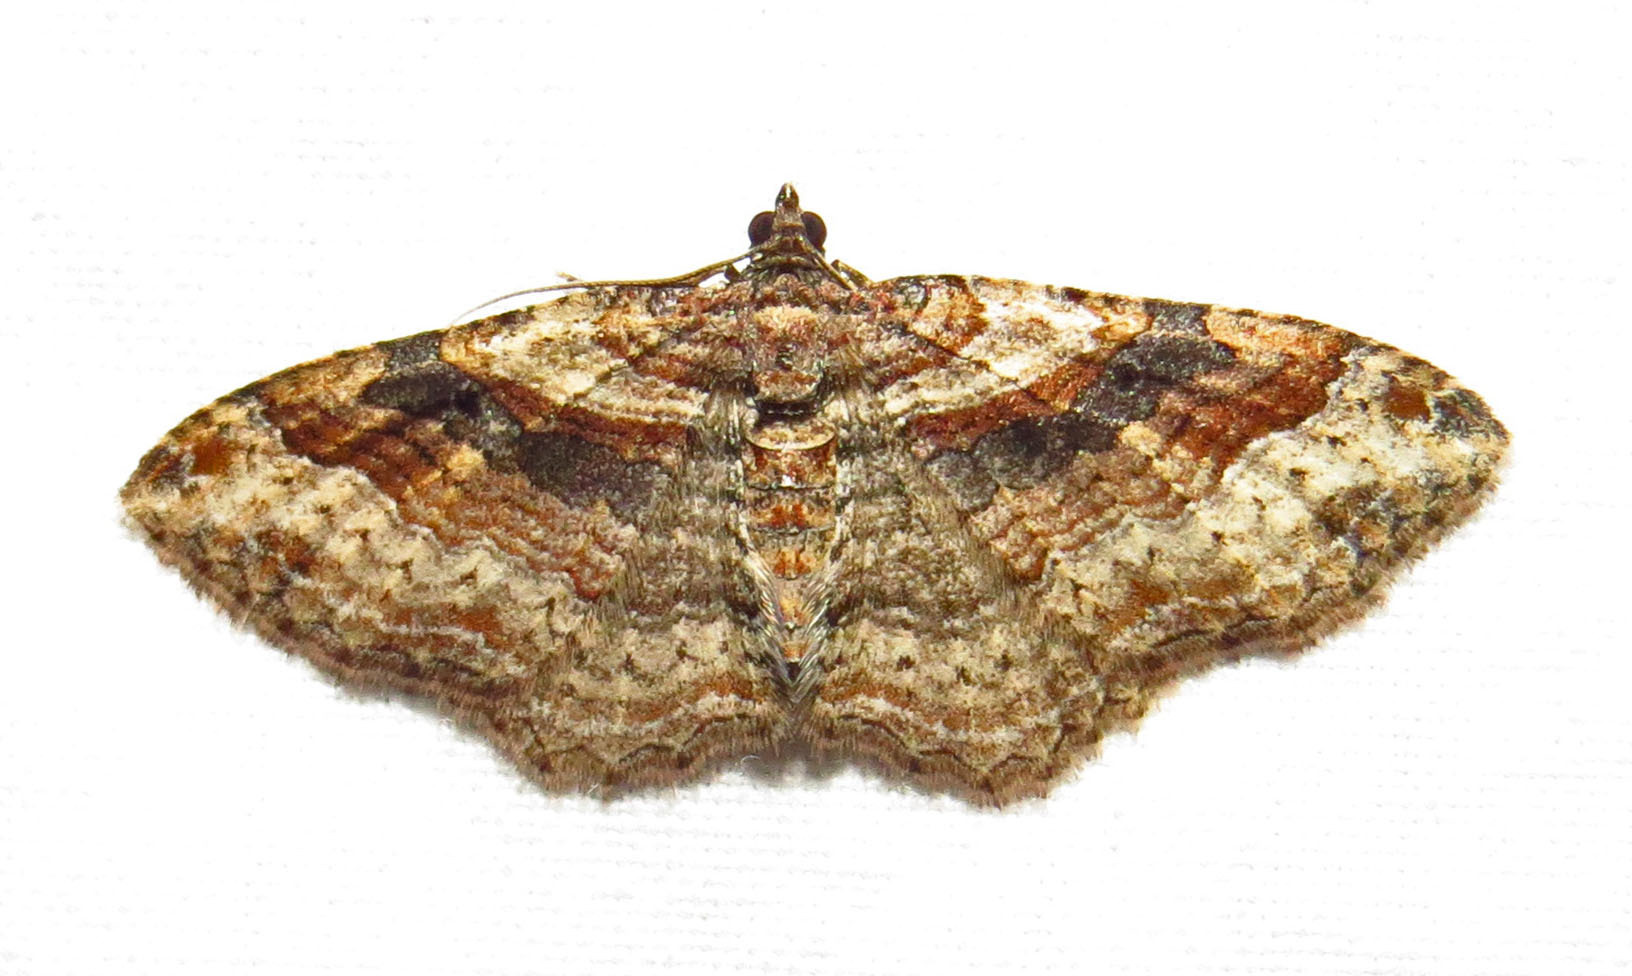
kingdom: Animalia
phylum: Arthropoda
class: Insecta
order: Lepidoptera
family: Geometridae
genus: Costaconvexa
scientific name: Costaconvexa centrostrigaria
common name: Bent-line carpet
